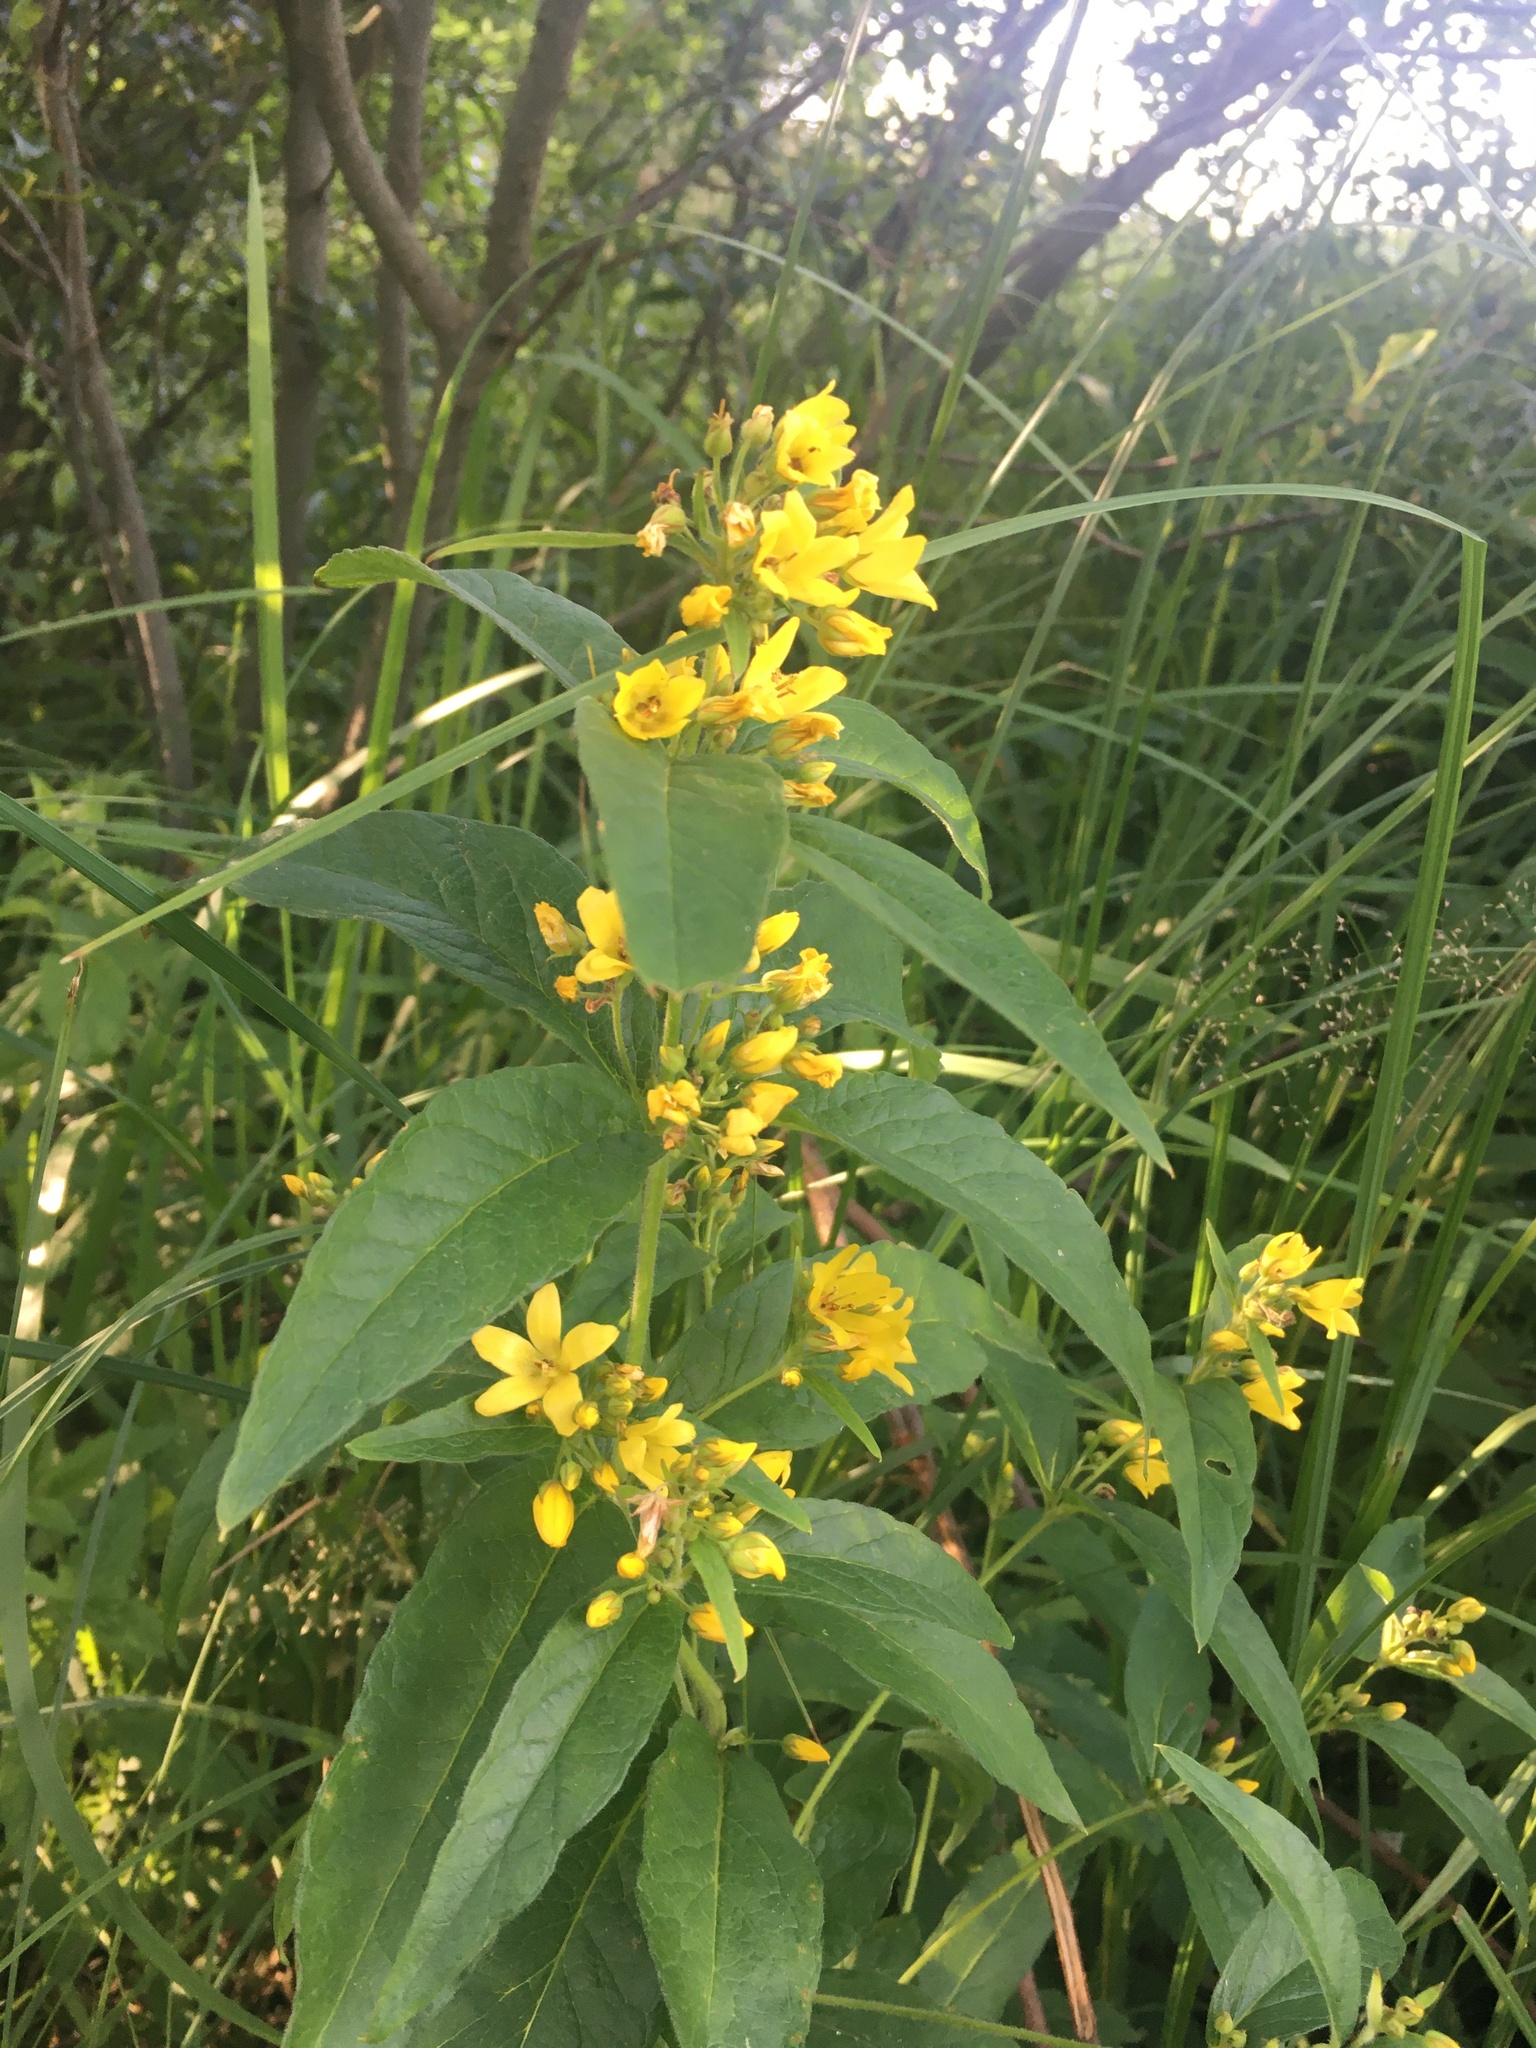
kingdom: Plantae
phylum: Tracheophyta
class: Magnoliopsida
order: Ericales
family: Primulaceae
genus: Lysimachia
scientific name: Lysimachia vulgaris
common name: Yellow loosestrife
